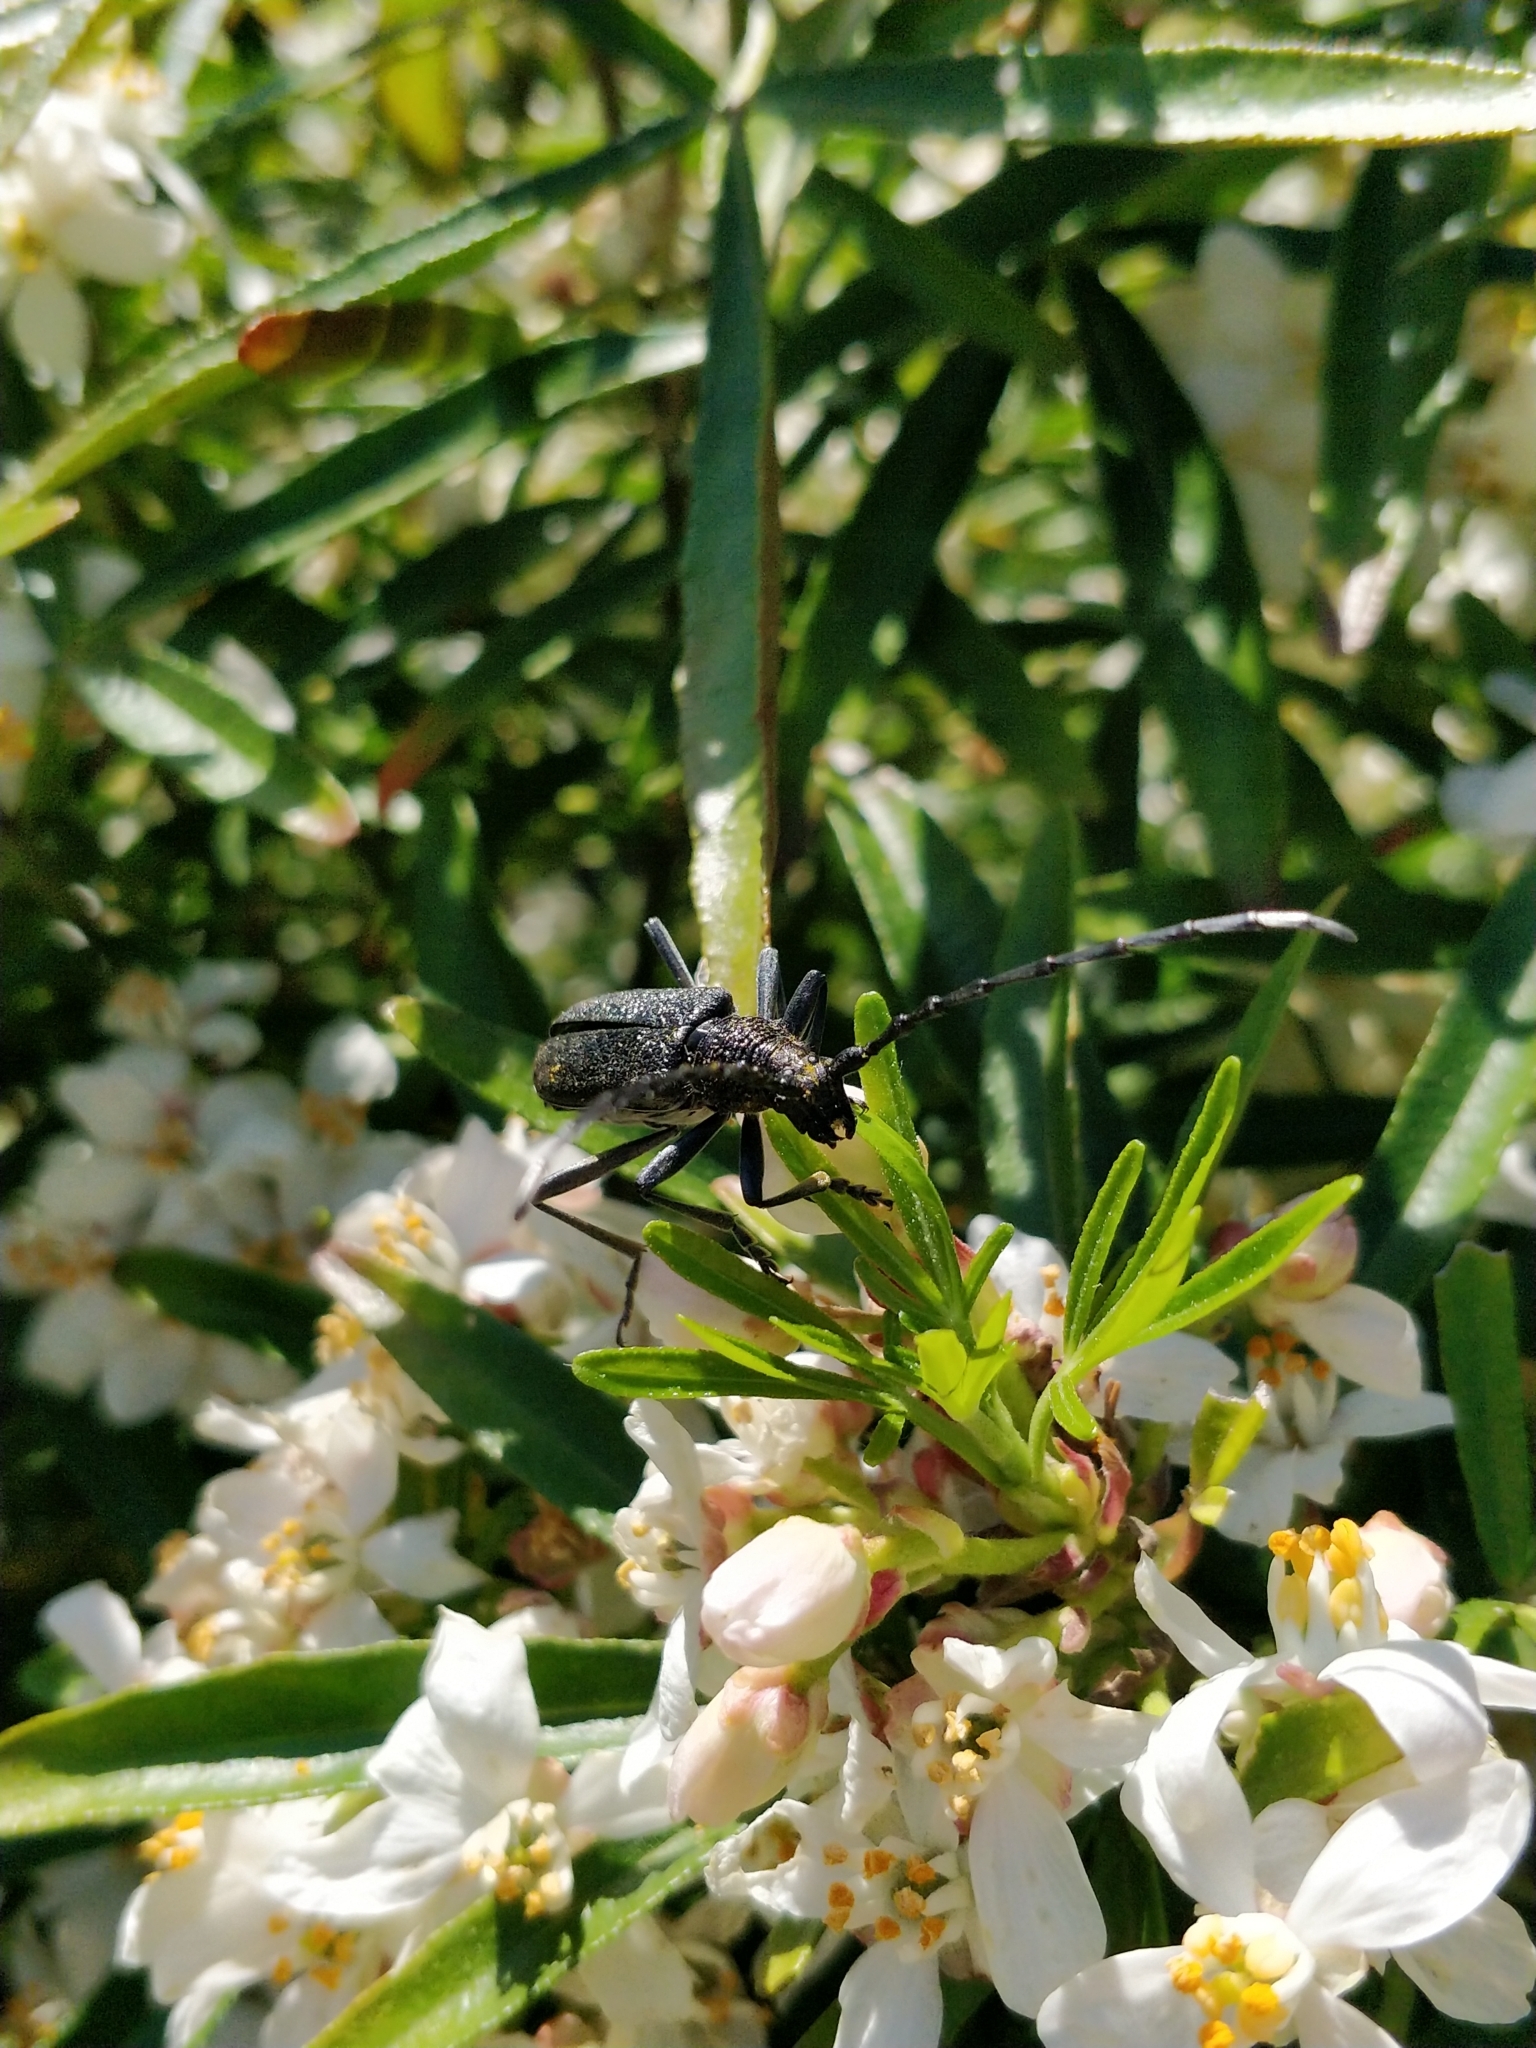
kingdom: Animalia
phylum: Arthropoda
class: Insecta
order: Coleoptera
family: Cerambycidae
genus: Cerambyx
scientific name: Cerambyx scopolii
